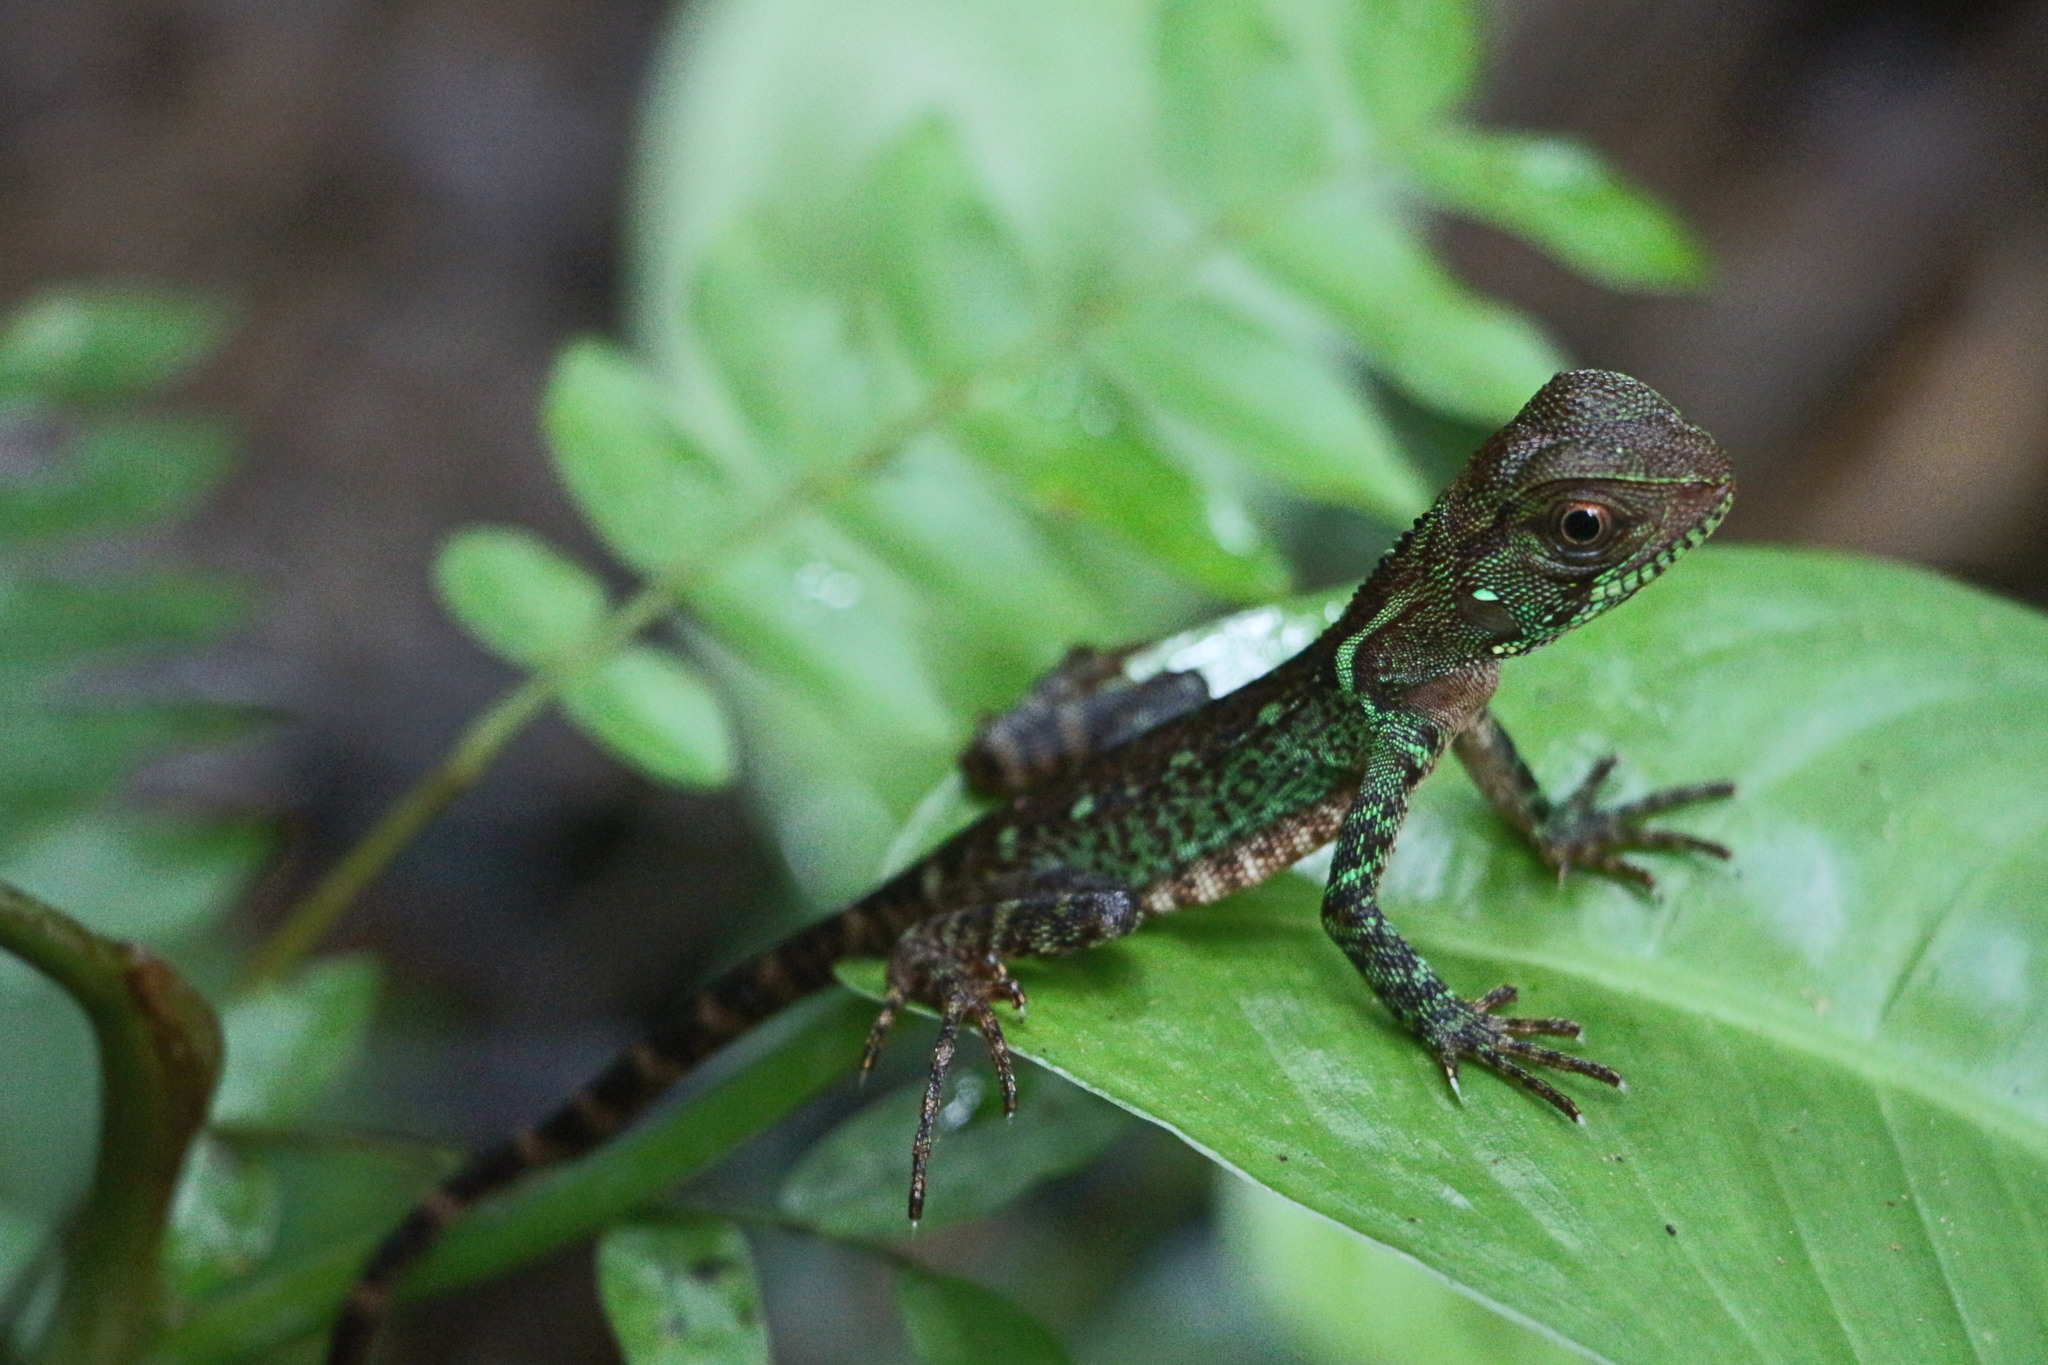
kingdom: Animalia
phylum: Chordata
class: Squamata
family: Hoplocercidae
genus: Enyalioides
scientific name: Enyalioides laticeps
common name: Guichenot's dwarf iguana
